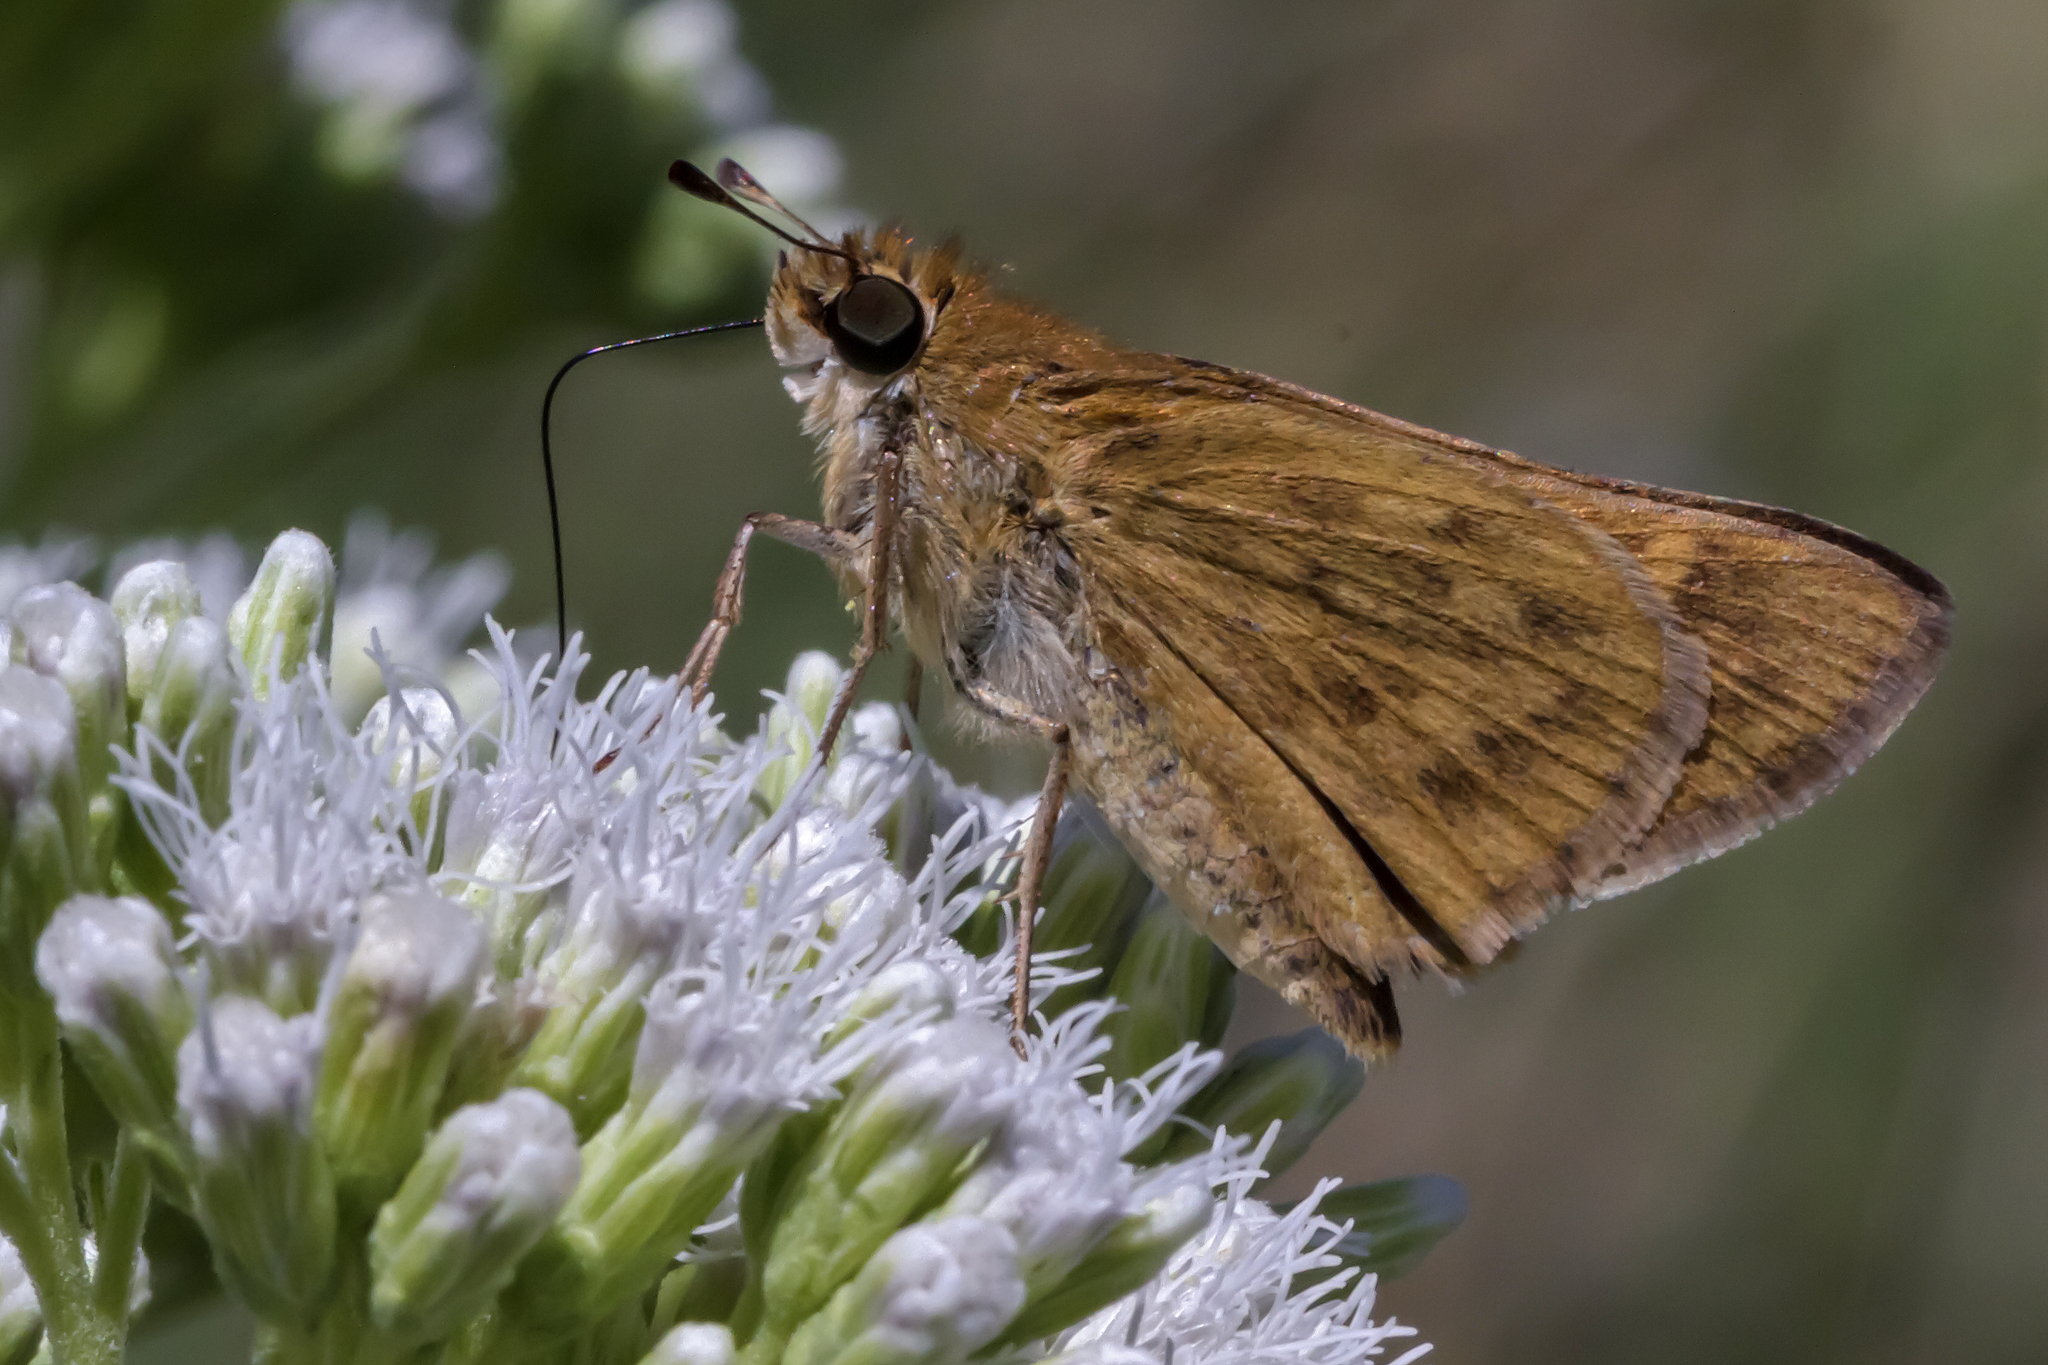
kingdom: Animalia
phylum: Arthropoda
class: Insecta
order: Lepidoptera
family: Hesperiidae
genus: Hylephila
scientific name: Hylephila phyleus
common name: Fiery skipper
